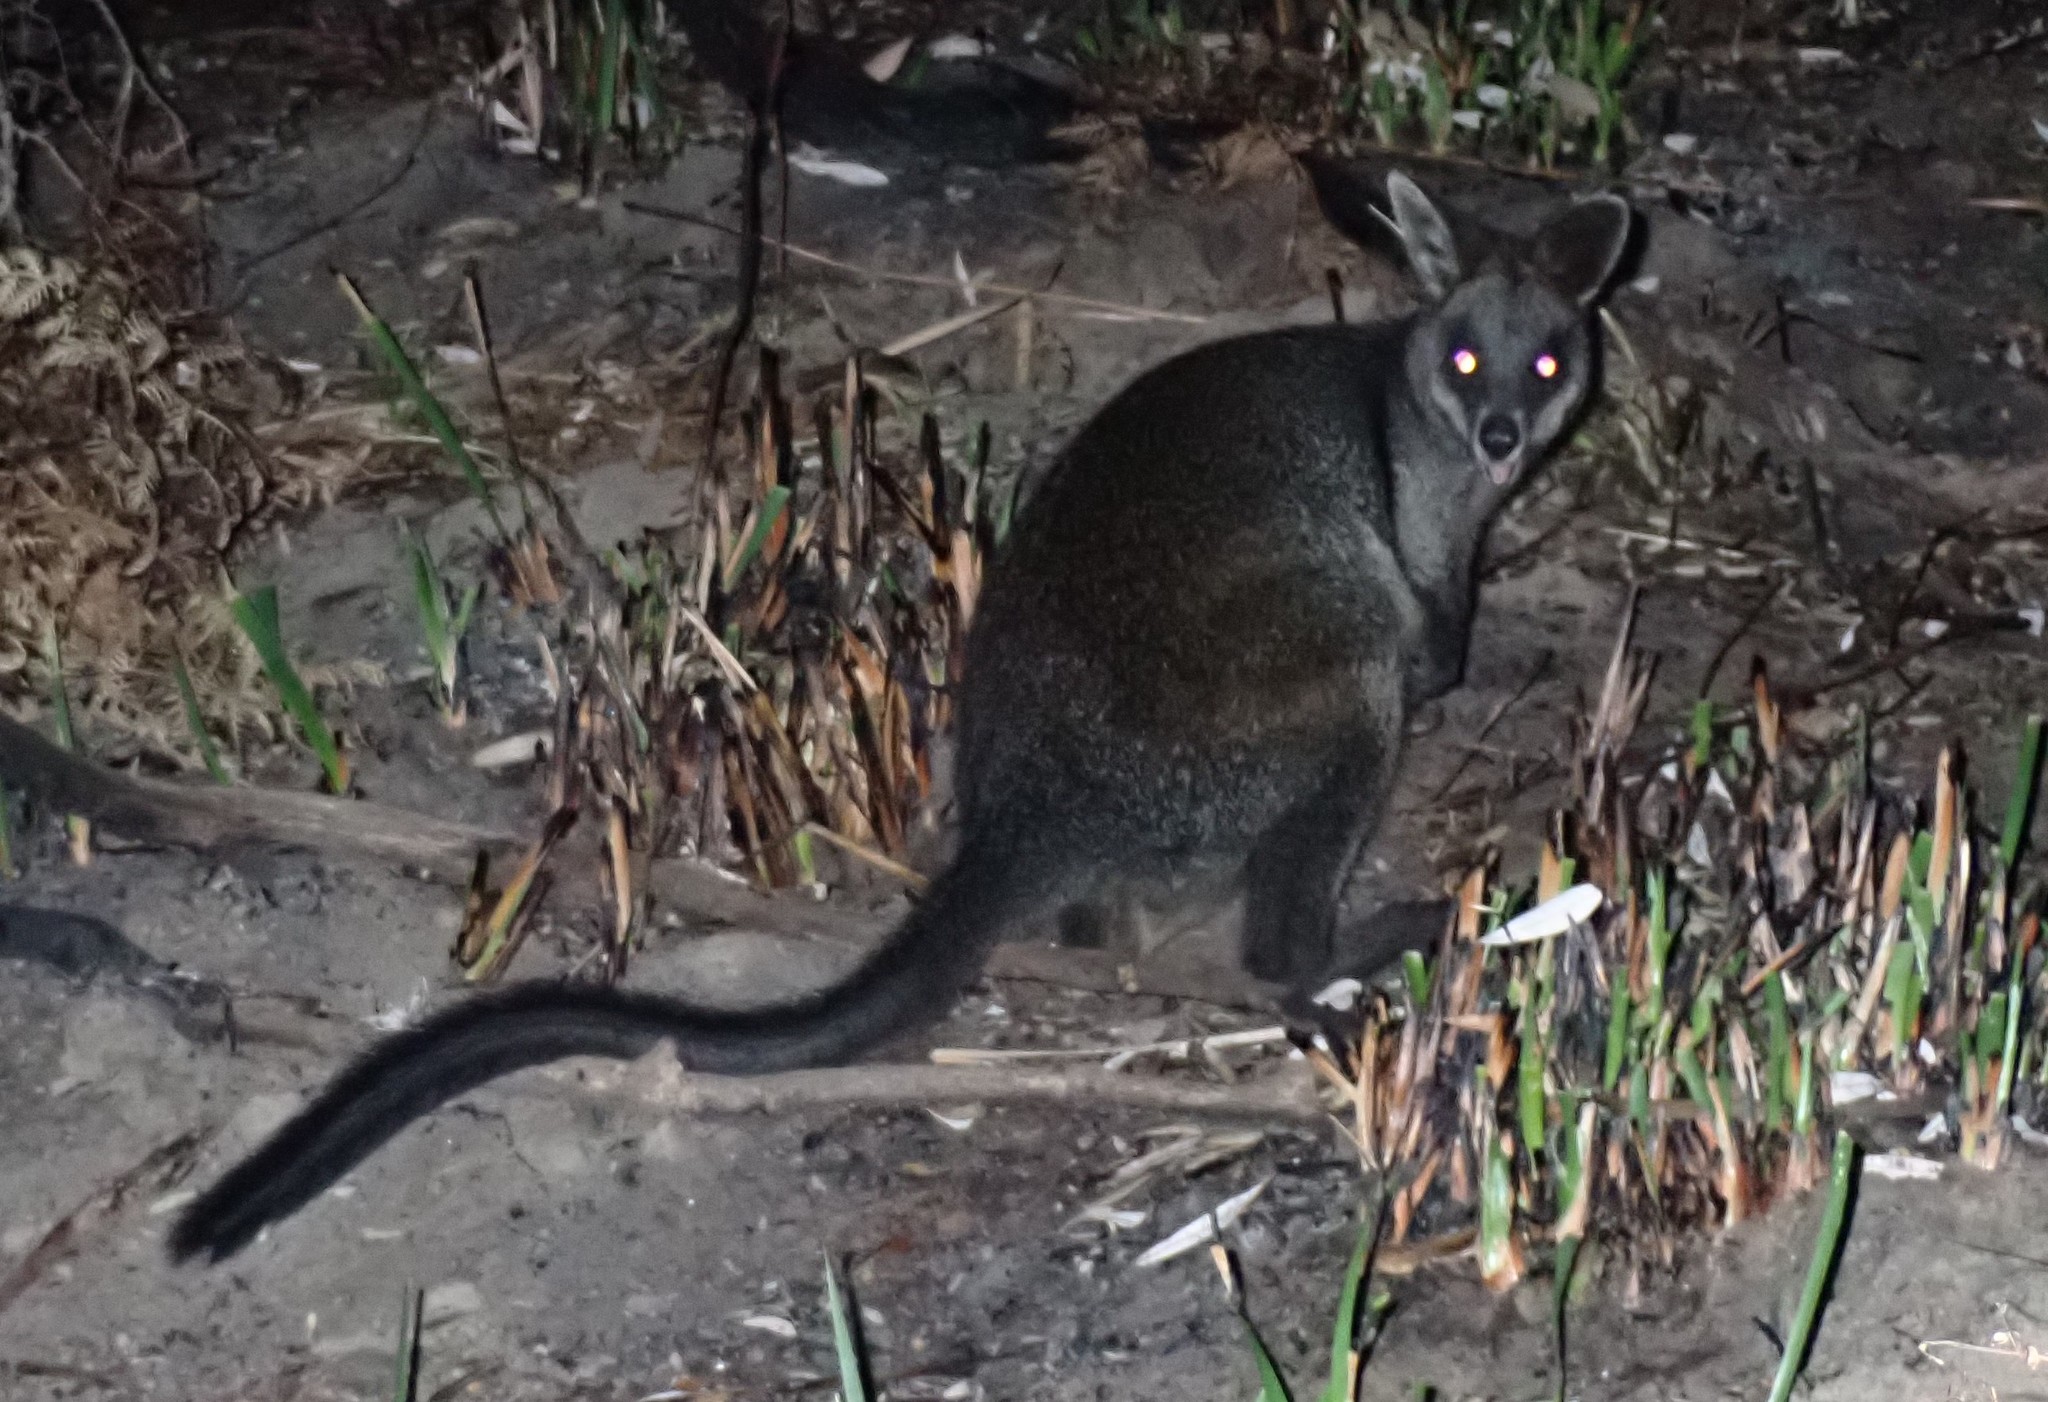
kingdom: Animalia
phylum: Chordata
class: Mammalia
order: Diprotodontia
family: Macropodidae
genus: Wallabia
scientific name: Wallabia bicolor
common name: Swamp wallaby
